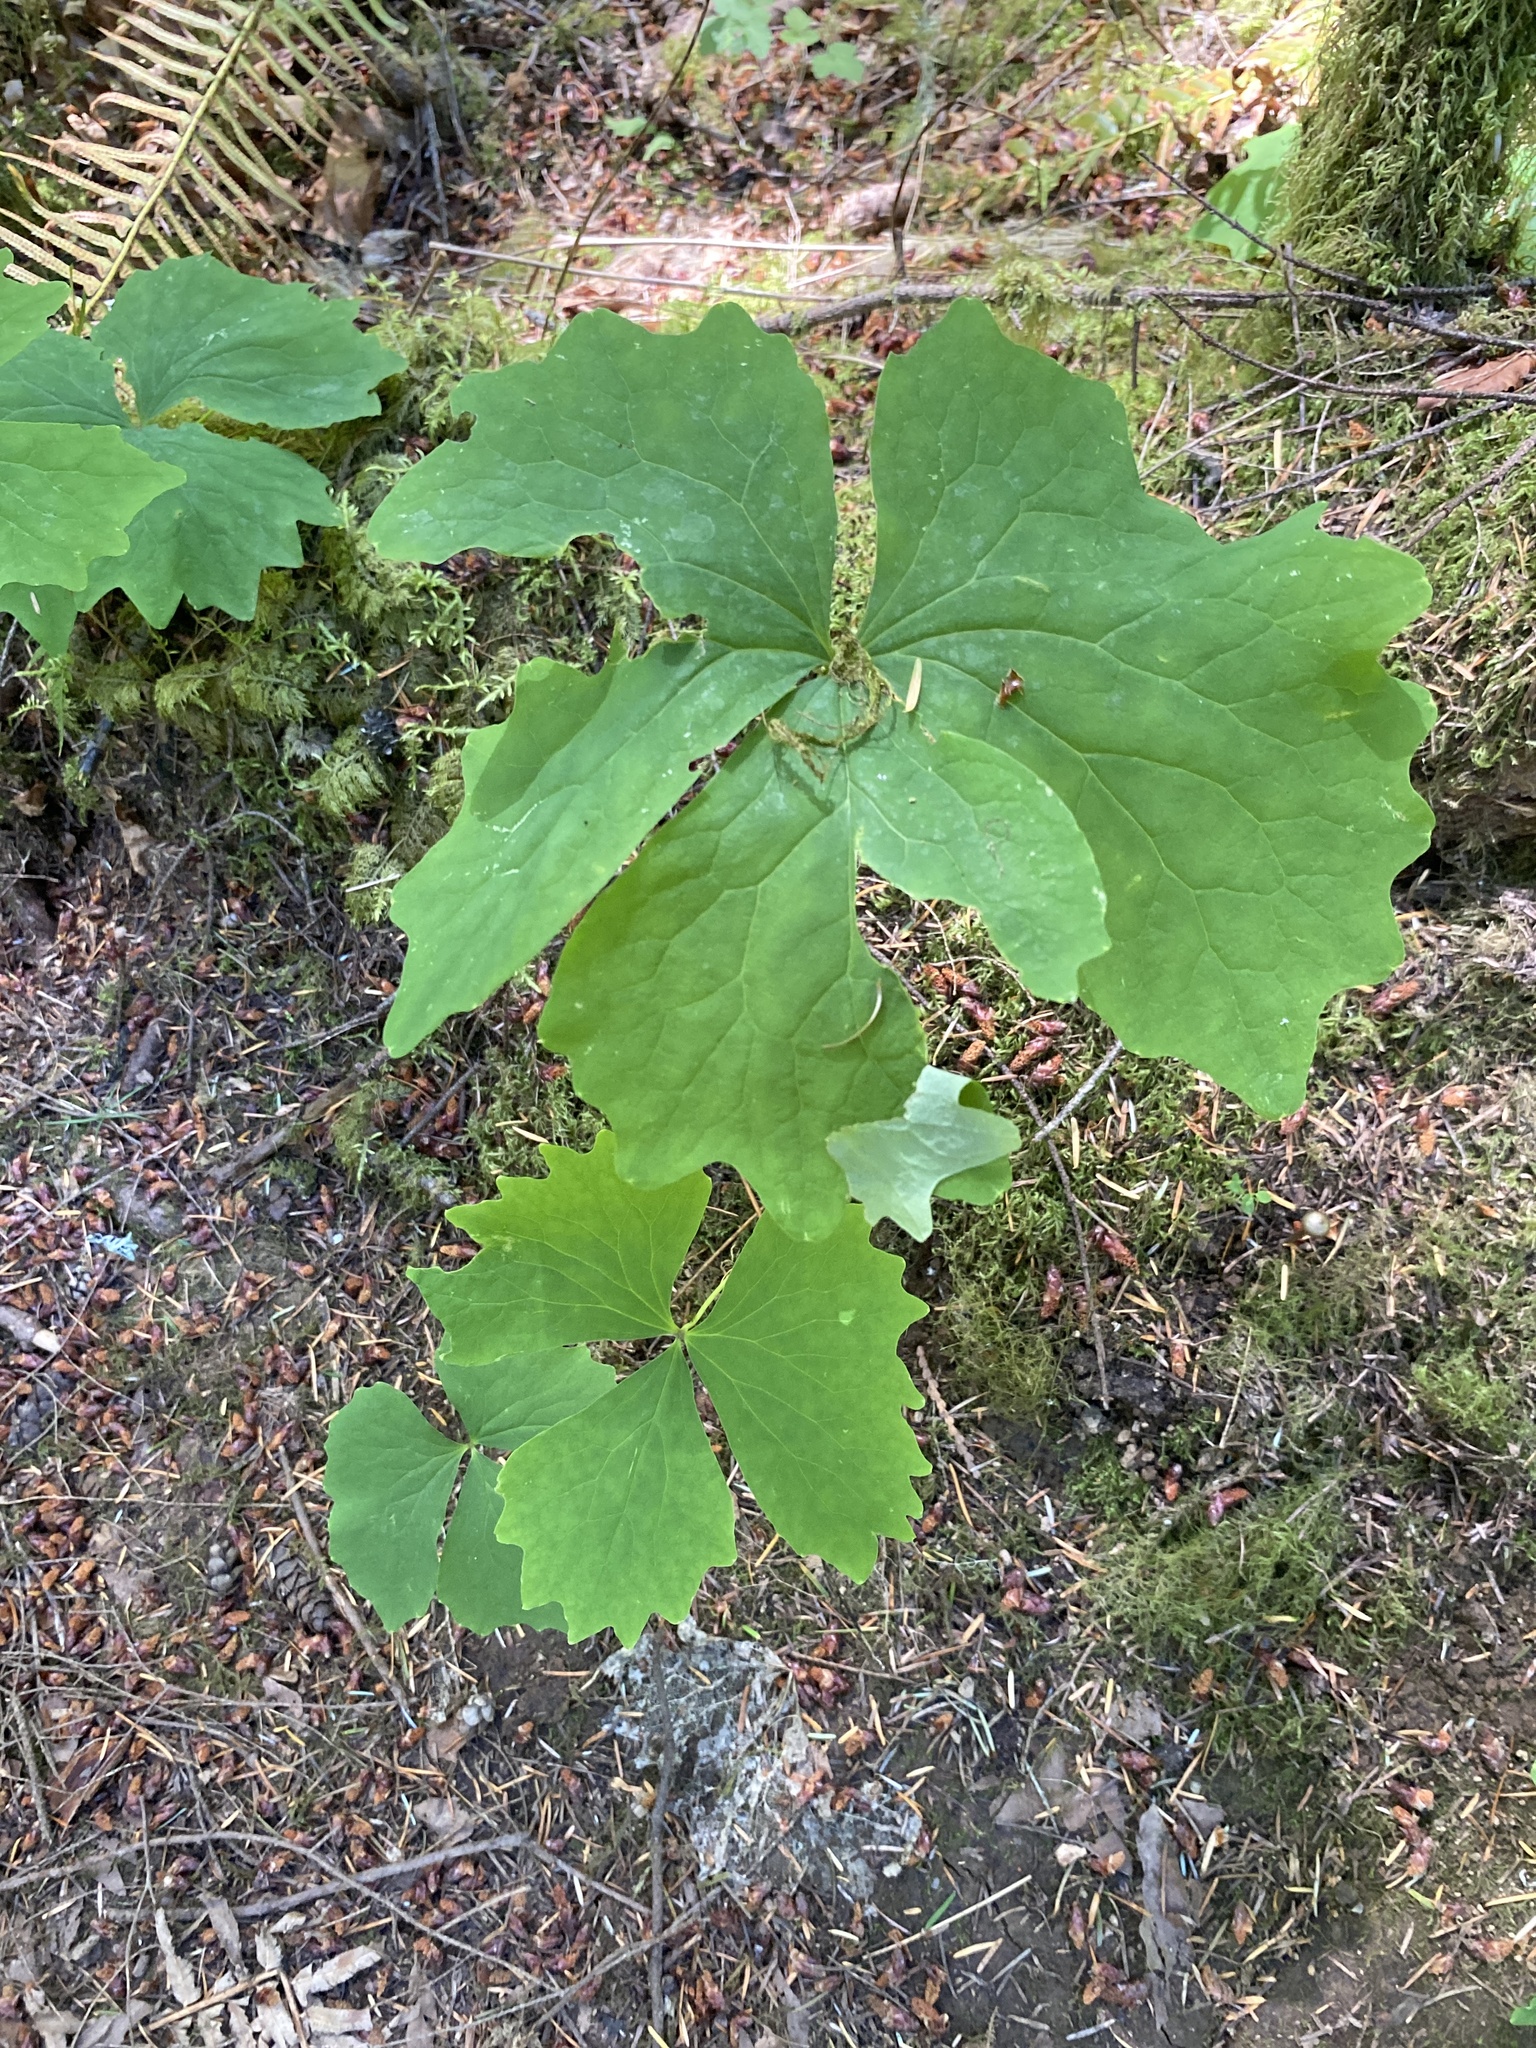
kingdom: Plantae
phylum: Tracheophyta
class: Magnoliopsida
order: Ranunculales
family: Berberidaceae
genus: Achlys
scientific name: Achlys triphylla
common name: Vanilla-leaf
